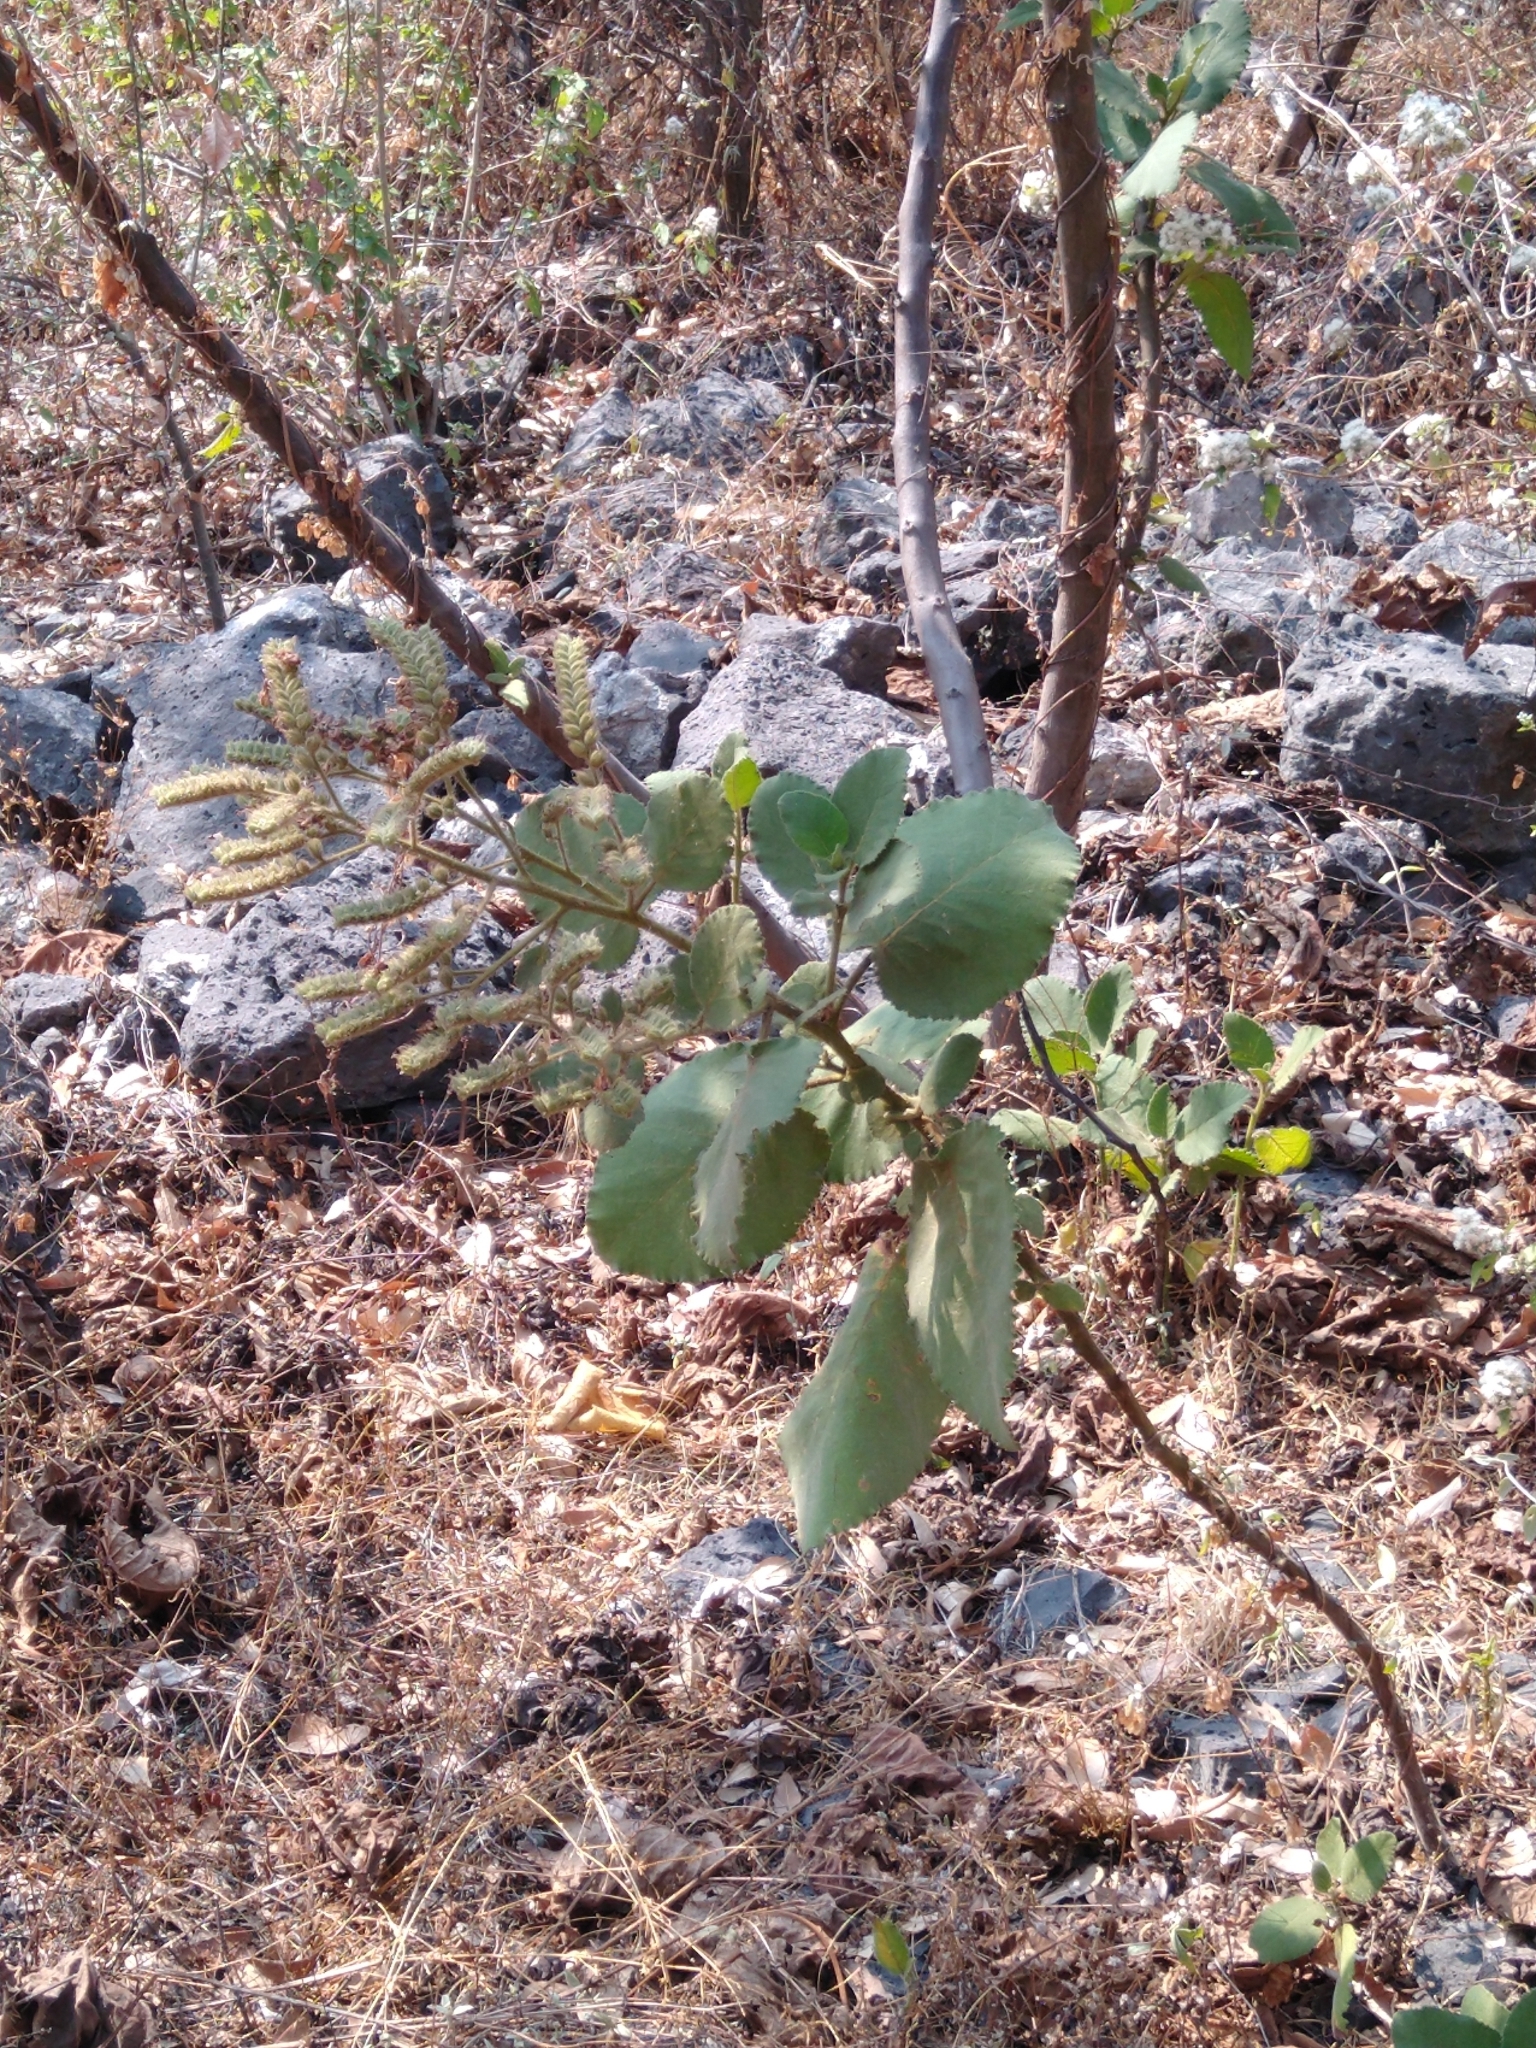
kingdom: Plantae
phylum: Tracheophyta
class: Magnoliopsida
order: Boraginales
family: Namaceae
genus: Wigandia
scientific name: Wigandia urens
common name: Caracus wigandia
